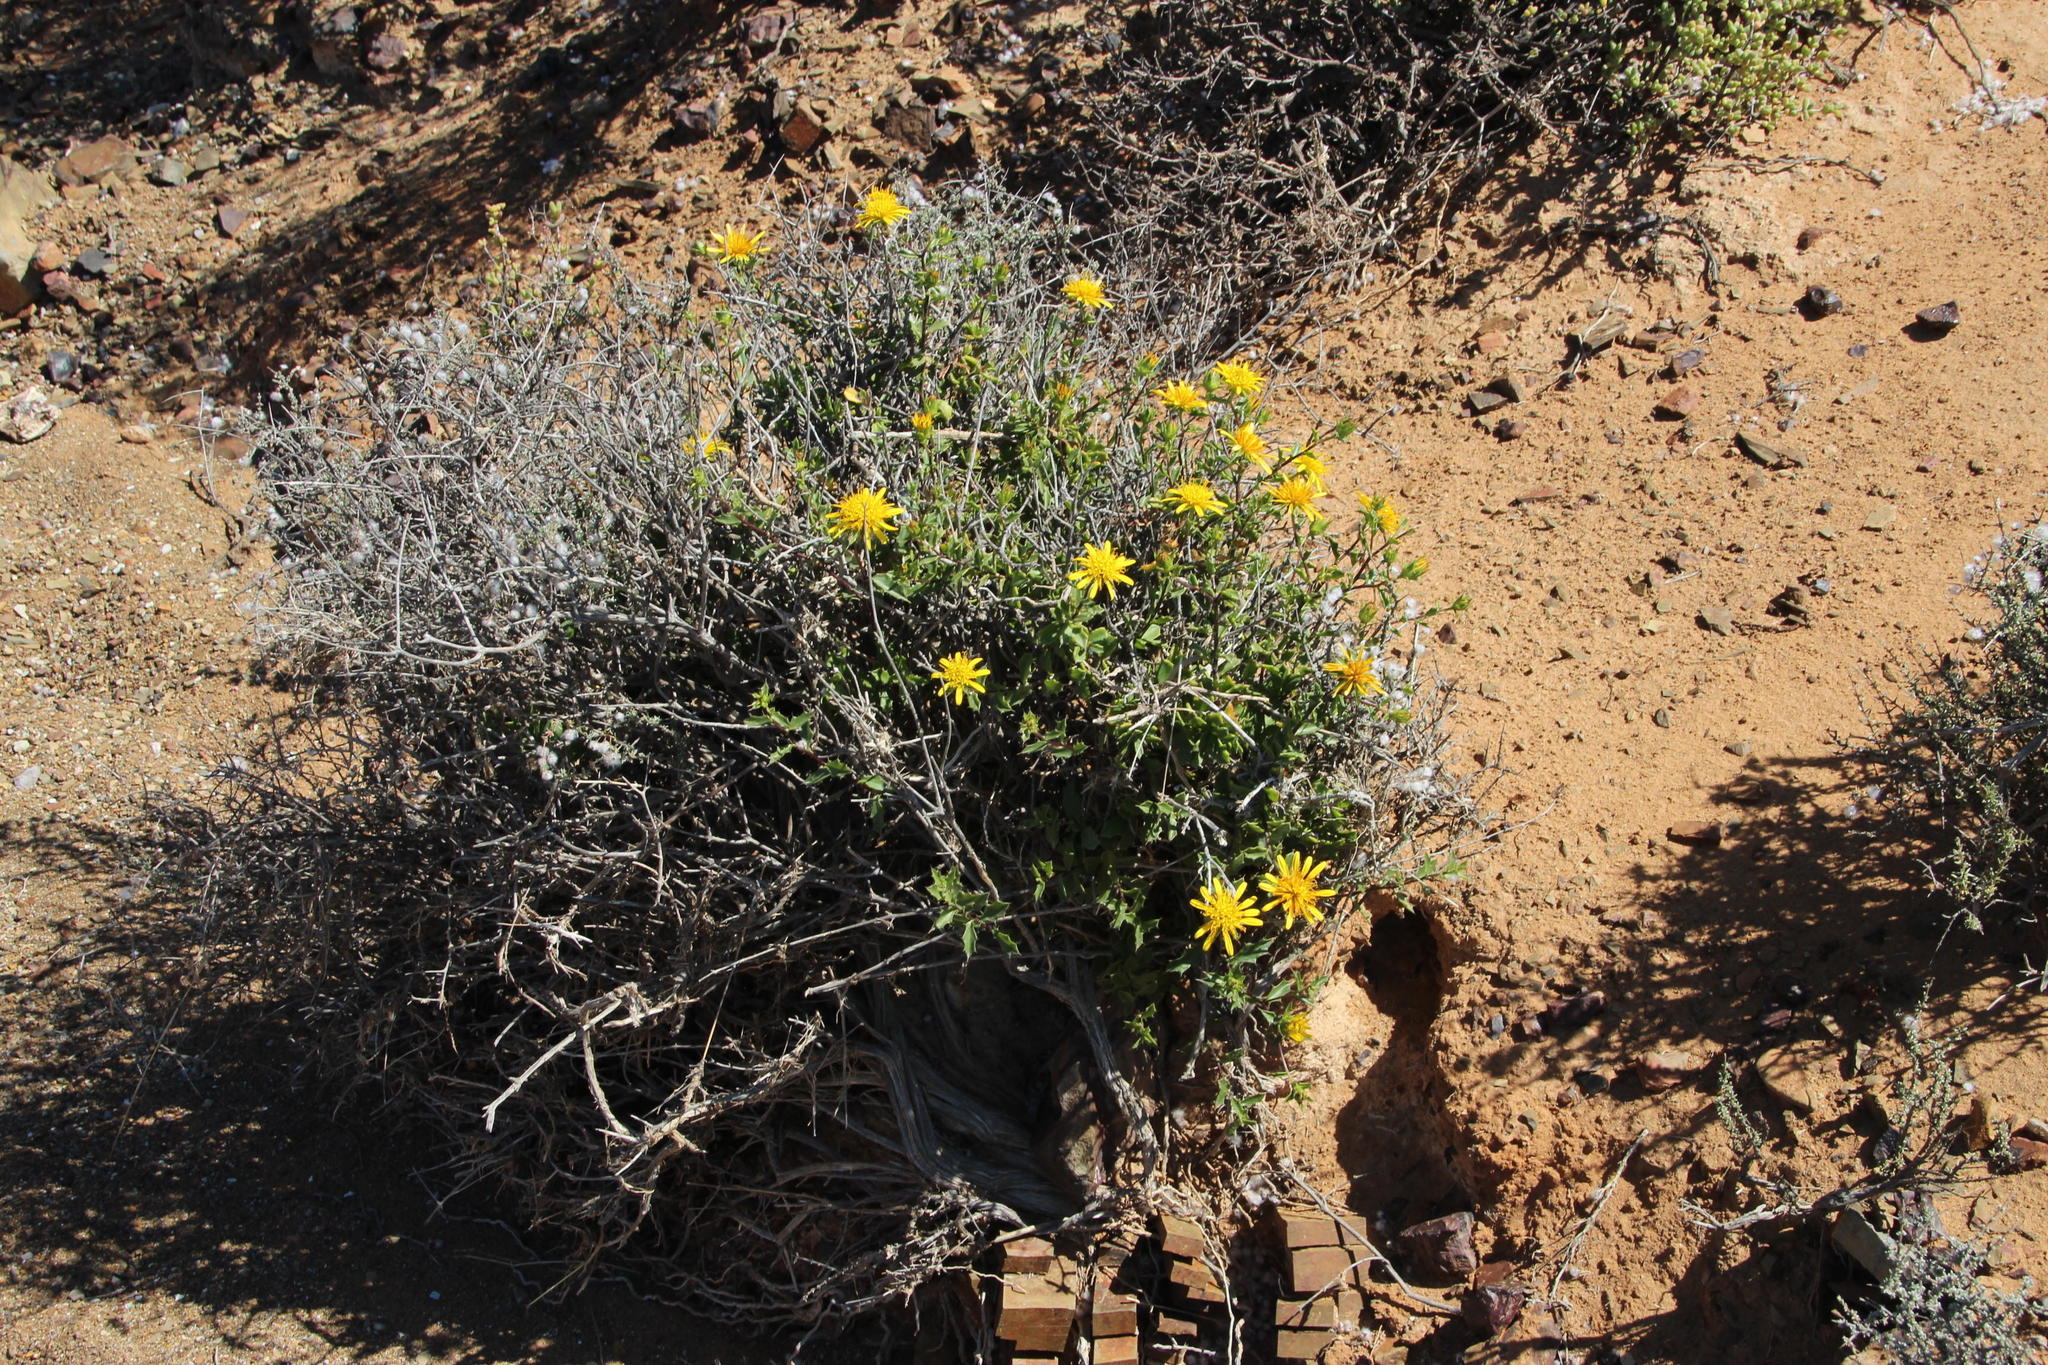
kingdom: Plantae
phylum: Tracheophyta
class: Magnoliopsida
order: Asterales
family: Asteraceae
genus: Berkheya
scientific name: Berkheya spinosa
